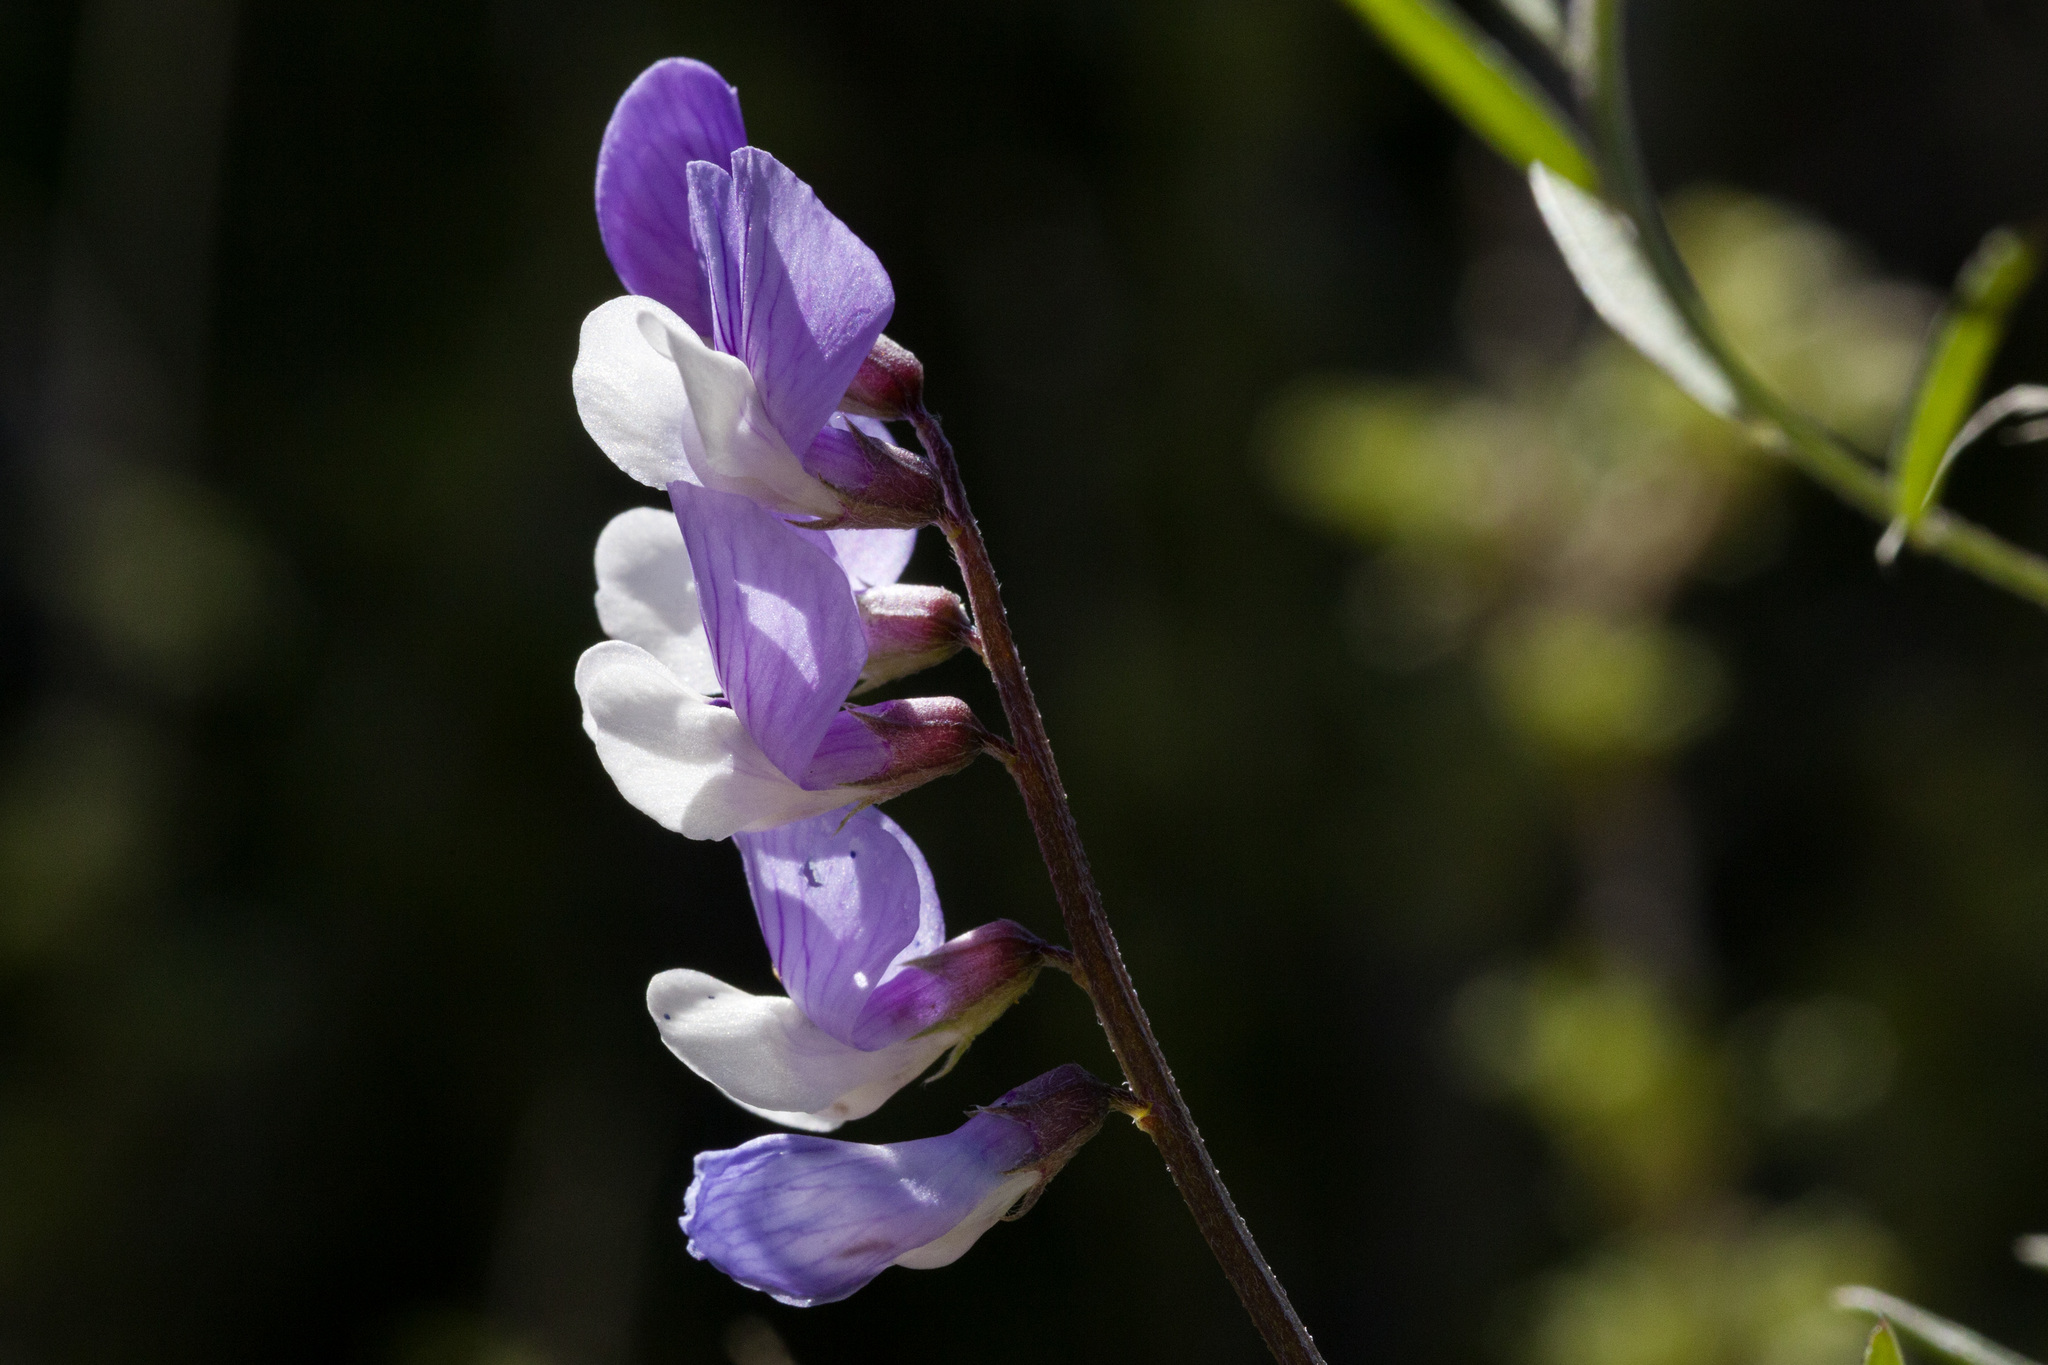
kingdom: Plantae
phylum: Tracheophyta
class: Magnoliopsida
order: Fabales
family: Fabaceae
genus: Vicia
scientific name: Vicia ludoviciana
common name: Louisiana vetch
